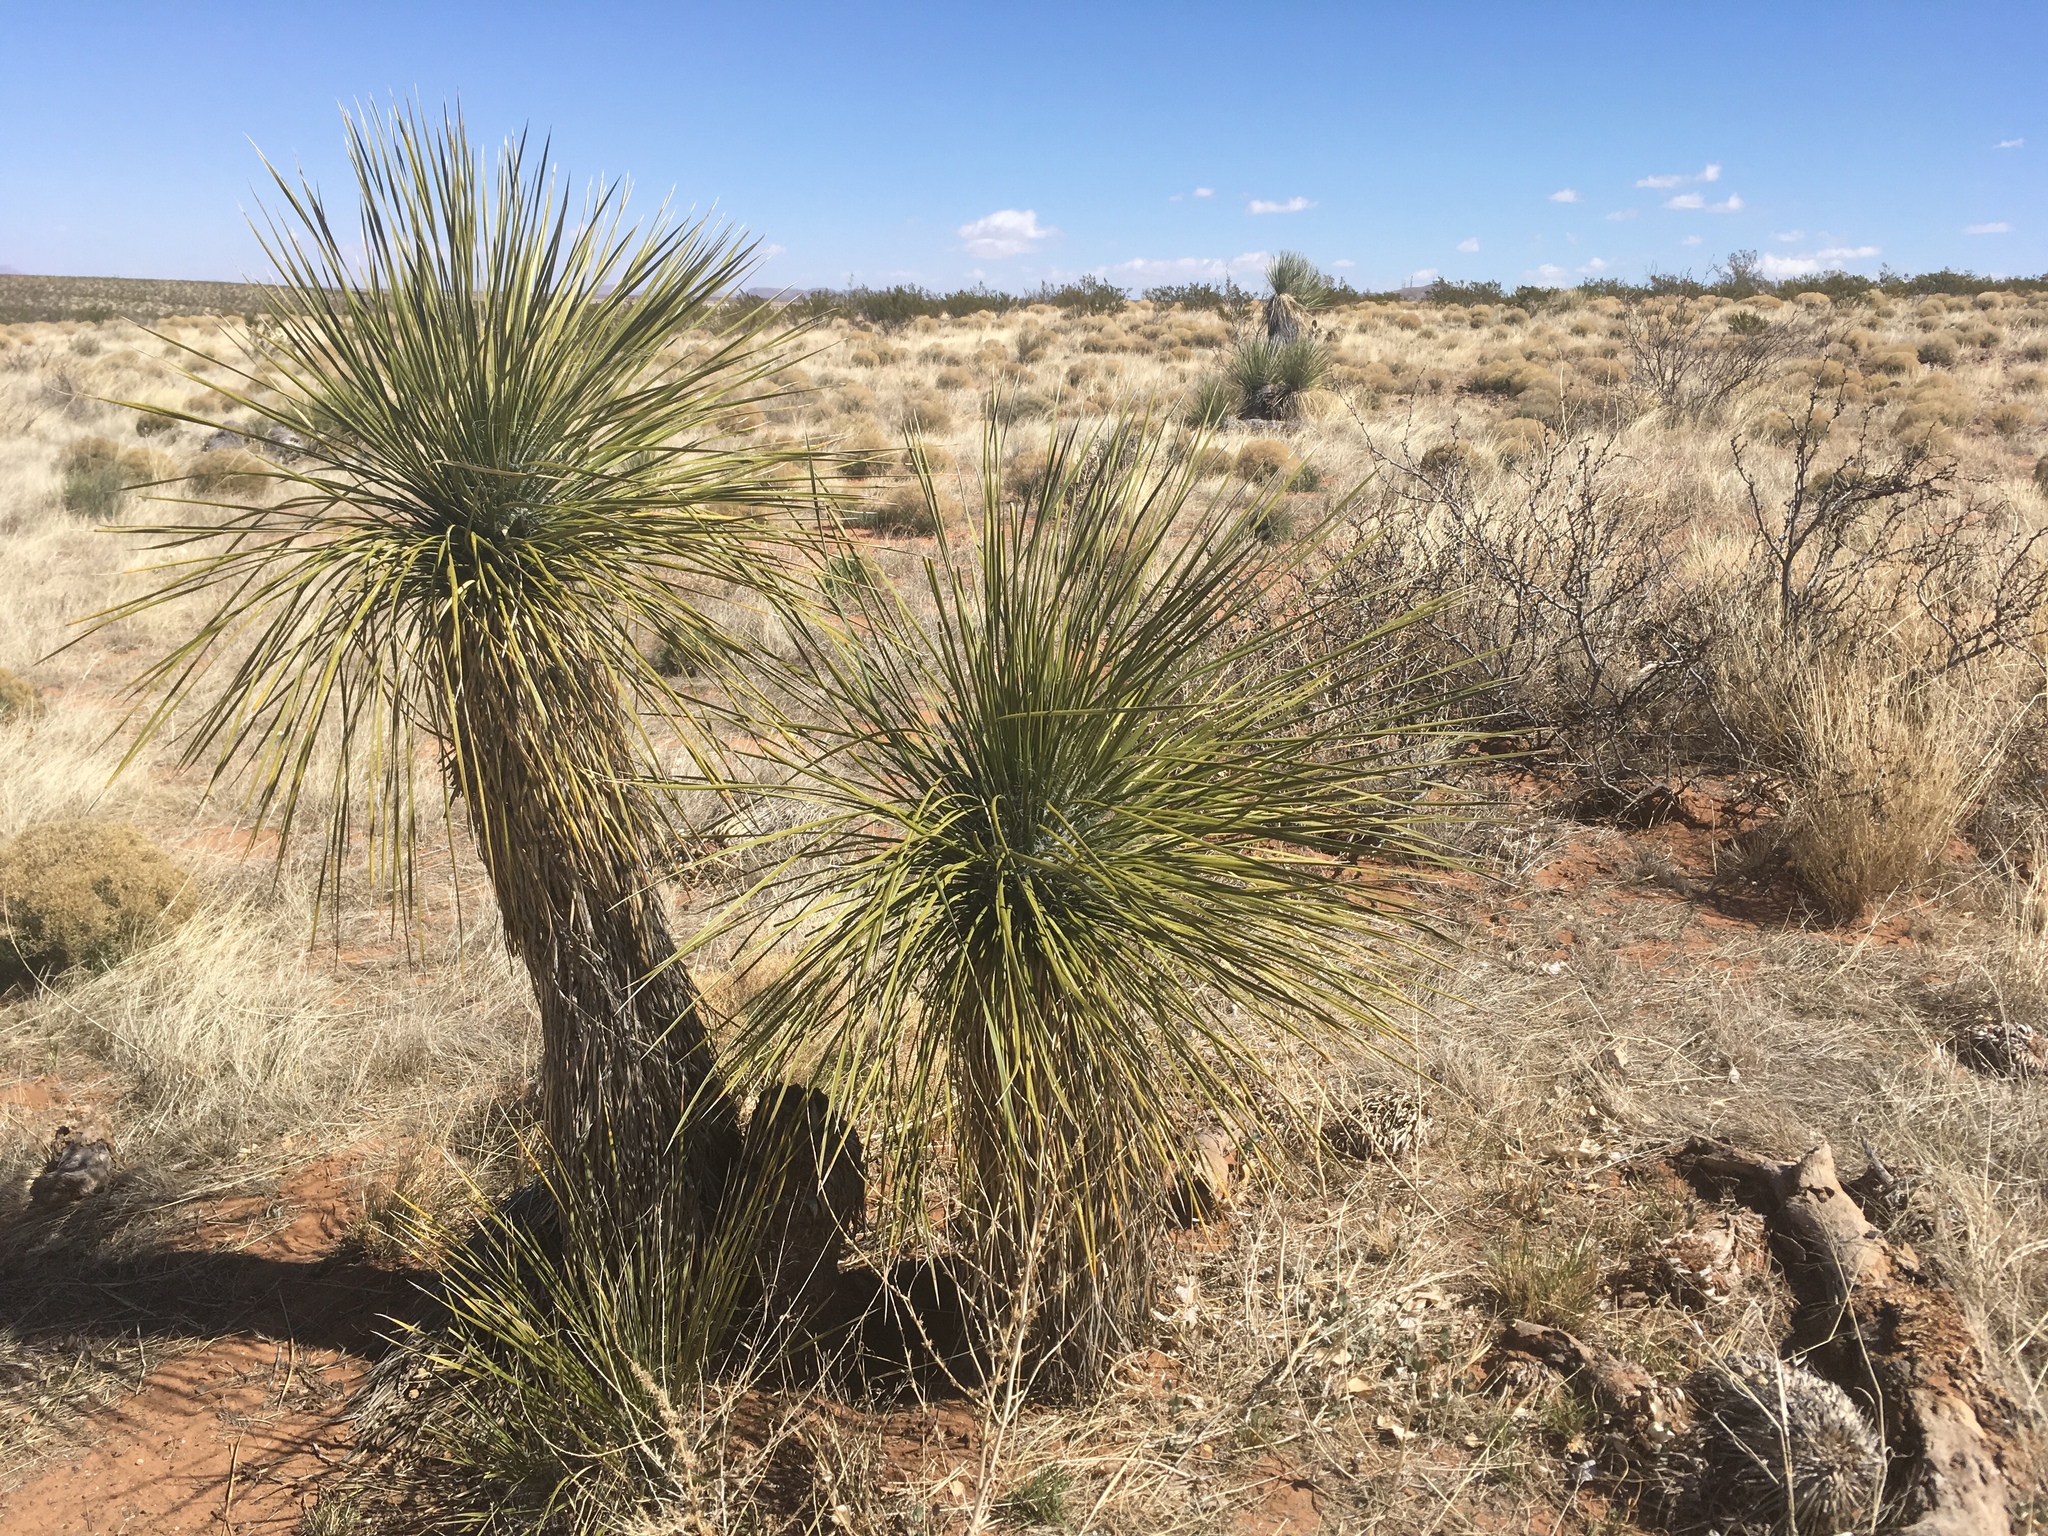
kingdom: Plantae
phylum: Tracheophyta
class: Liliopsida
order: Asparagales
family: Asparagaceae
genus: Yucca
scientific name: Yucca elata
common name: Palmella
